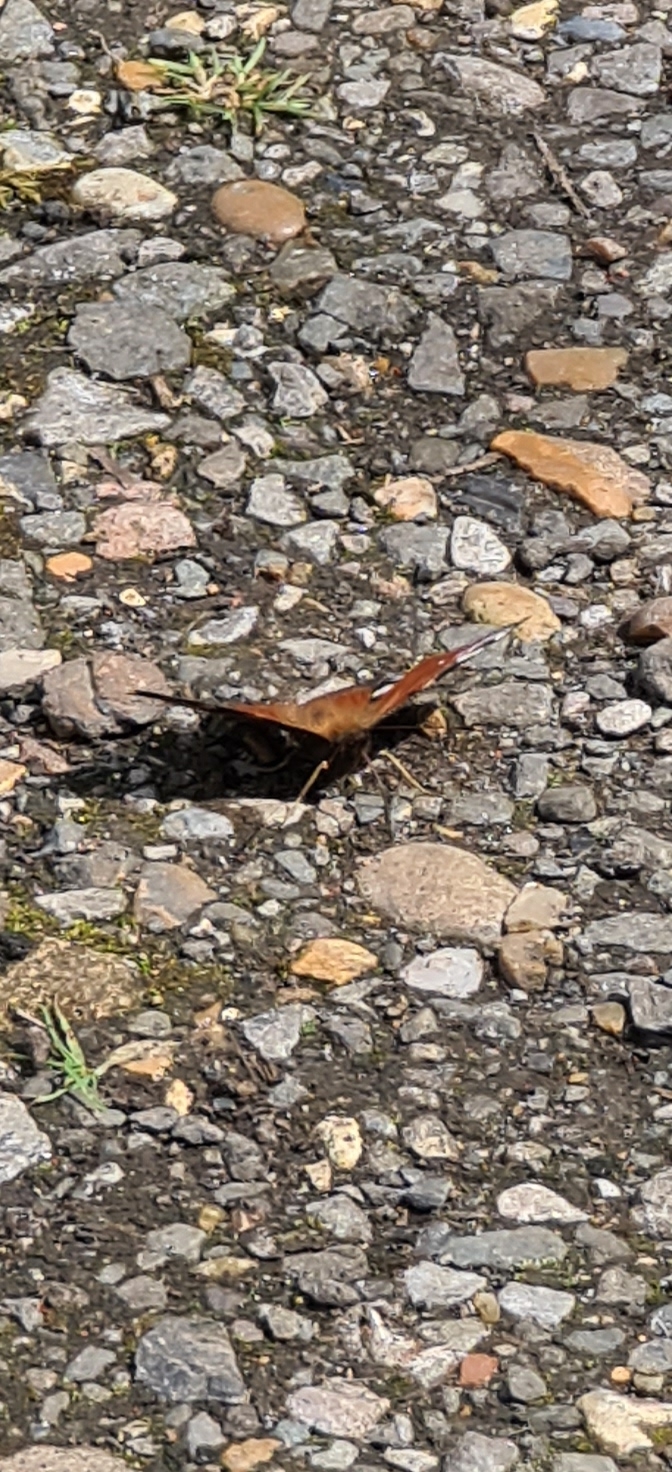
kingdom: Animalia
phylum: Arthropoda
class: Insecta
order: Lepidoptera
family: Nymphalidae
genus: Aglais
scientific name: Aglais io
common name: Peacock
